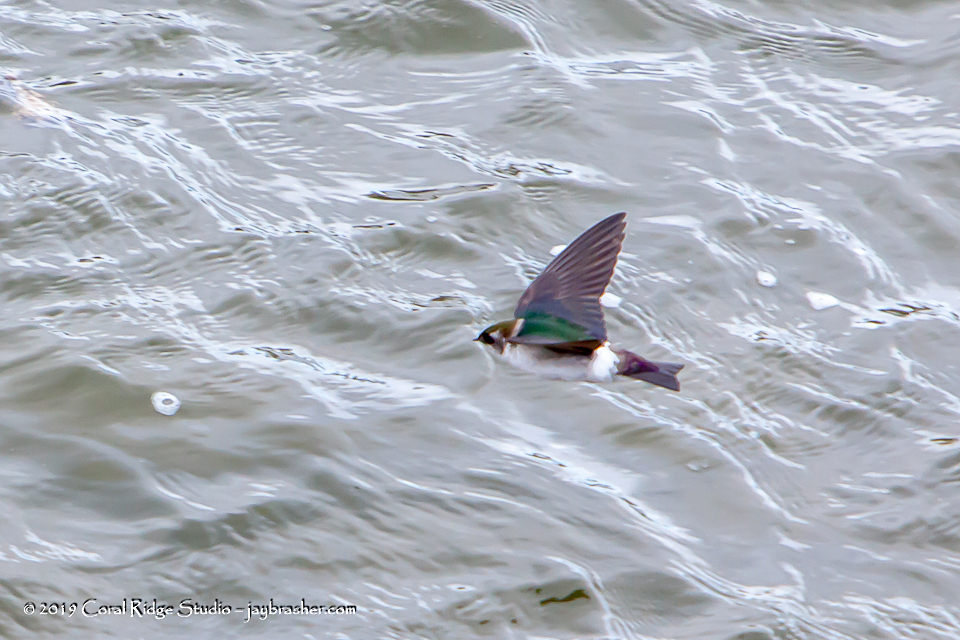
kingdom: Animalia
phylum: Chordata
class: Aves
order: Passeriformes
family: Hirundinidae
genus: Tachycineta
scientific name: Tachycineta thalassina
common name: Violet-green swallow
